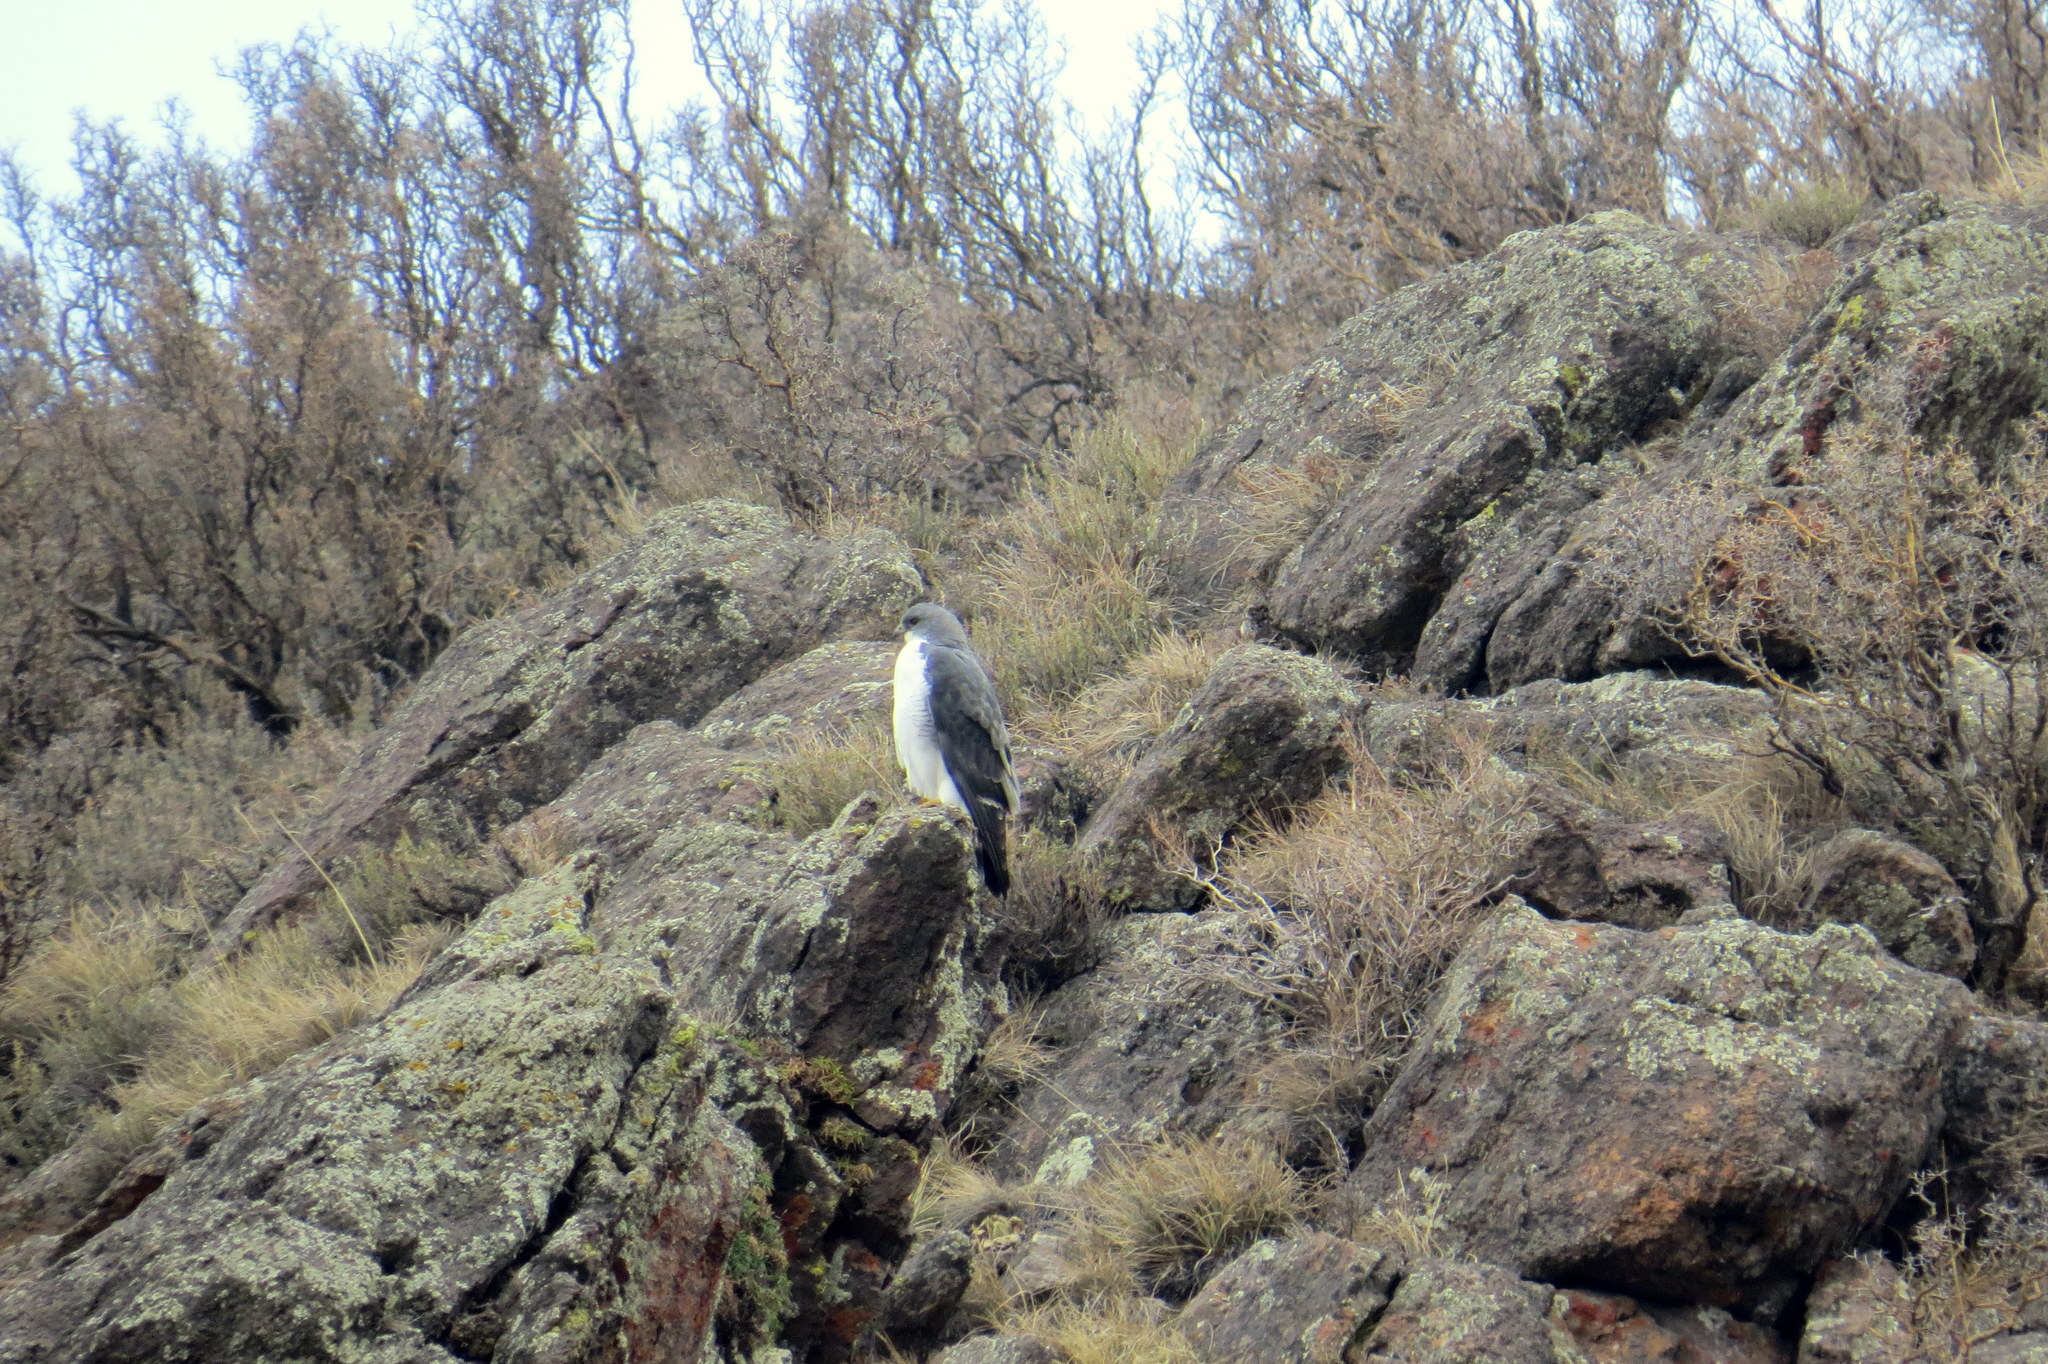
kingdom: Animalia
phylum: Chordata
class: Aves
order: Accipitriformes
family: Accipitridae
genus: Buteo
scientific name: Buteo polyosoma
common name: Variable hawk
